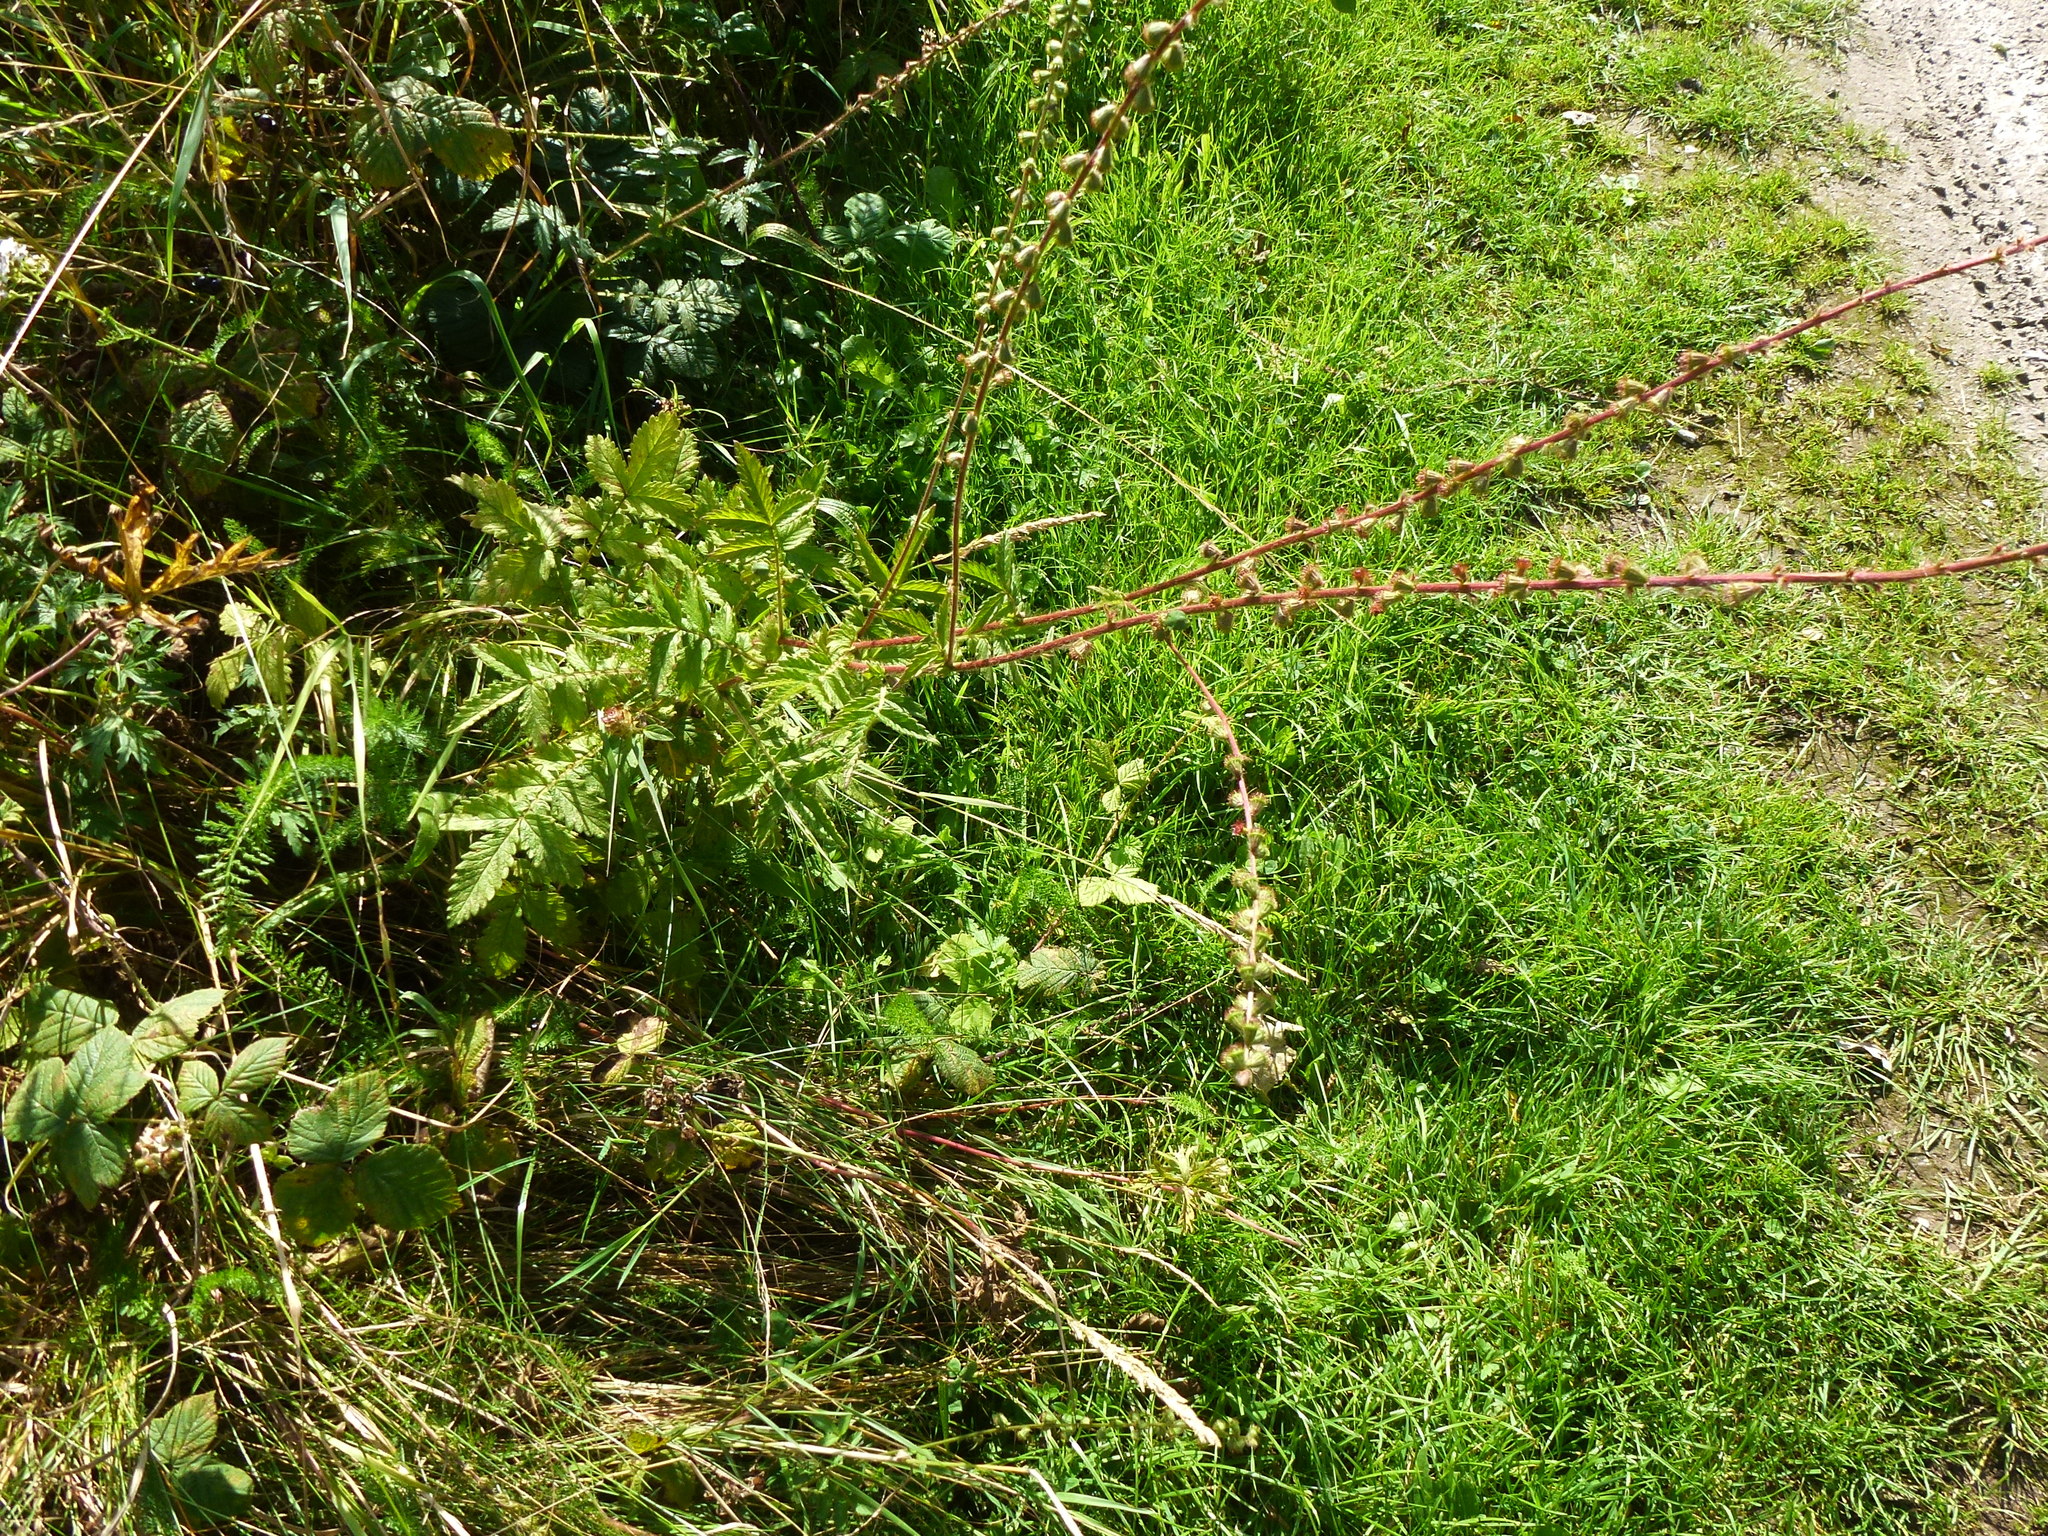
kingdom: Plantae
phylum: Tracheophyta
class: Magnoliopsida
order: Rosales
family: Rosaceae
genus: Agrimonia
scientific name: Agrimonia eupatoria
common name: Agrimony
